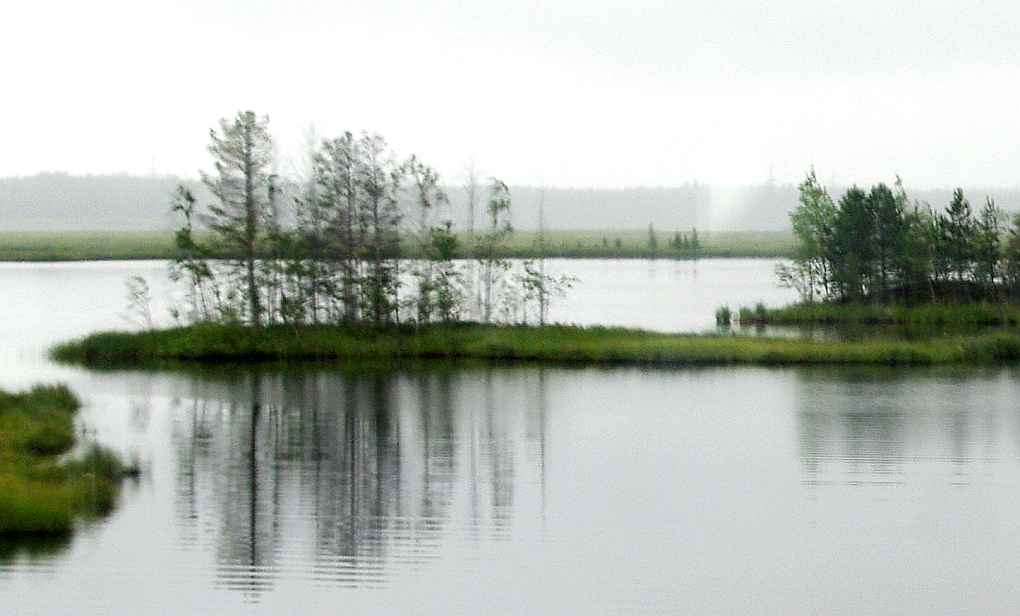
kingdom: Plantae
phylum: Tracheophyta
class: Pinopsida
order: Pinales
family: Pinaceae
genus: Pinus
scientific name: Pinus sylvestris
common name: Scots pine
